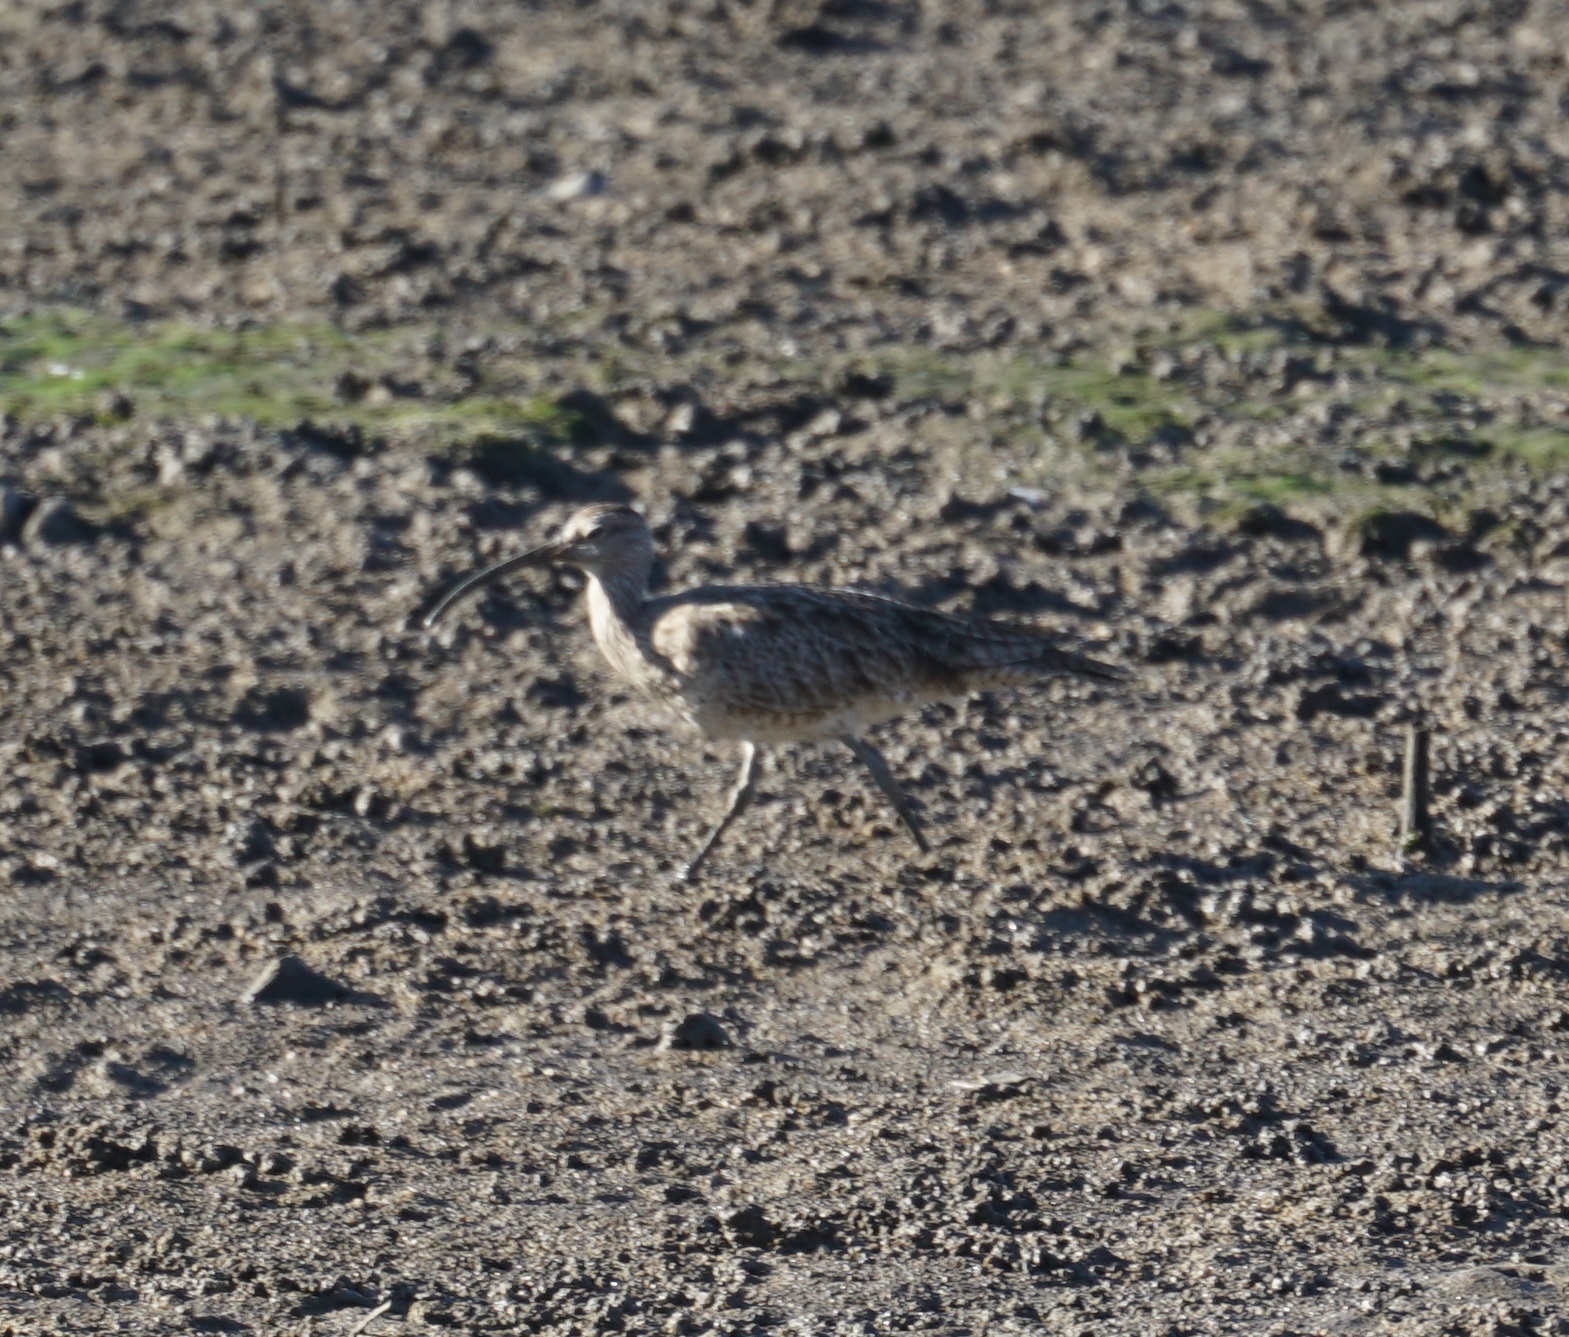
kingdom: Animalia
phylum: Chordata
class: Aves
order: Charadriiformes
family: Scolopacidae
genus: Numenius
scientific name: Numenius phaeopus
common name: Whimbrel
